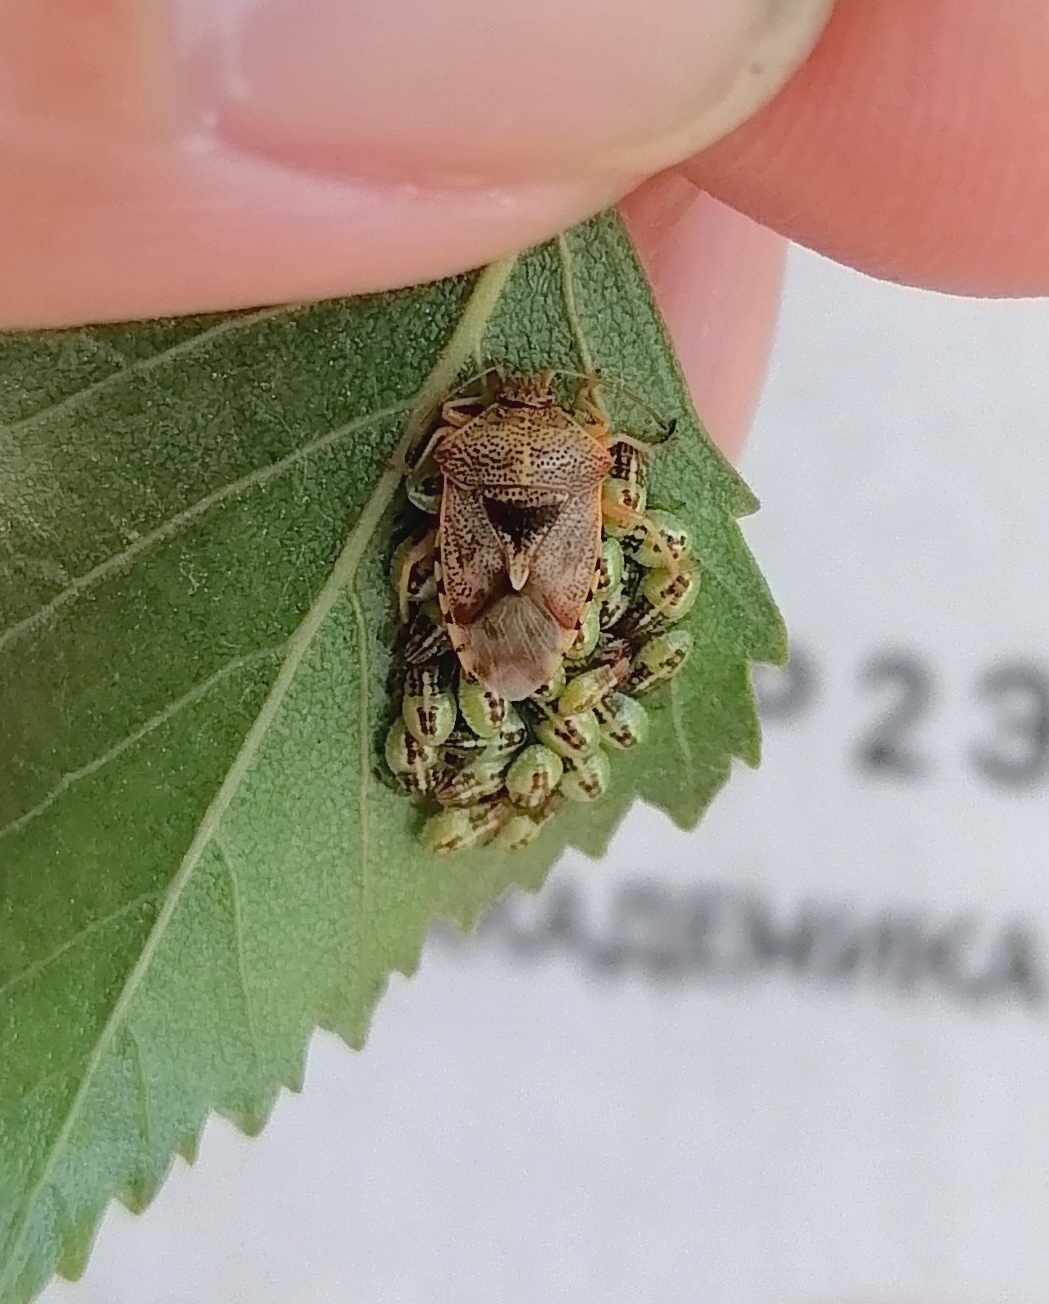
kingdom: Animalia
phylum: Arthropoda
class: Insecta
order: Hemiptera
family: Acanthosomatidae
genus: Elasmucha
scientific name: Elasmucha grisea
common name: Parent bug
